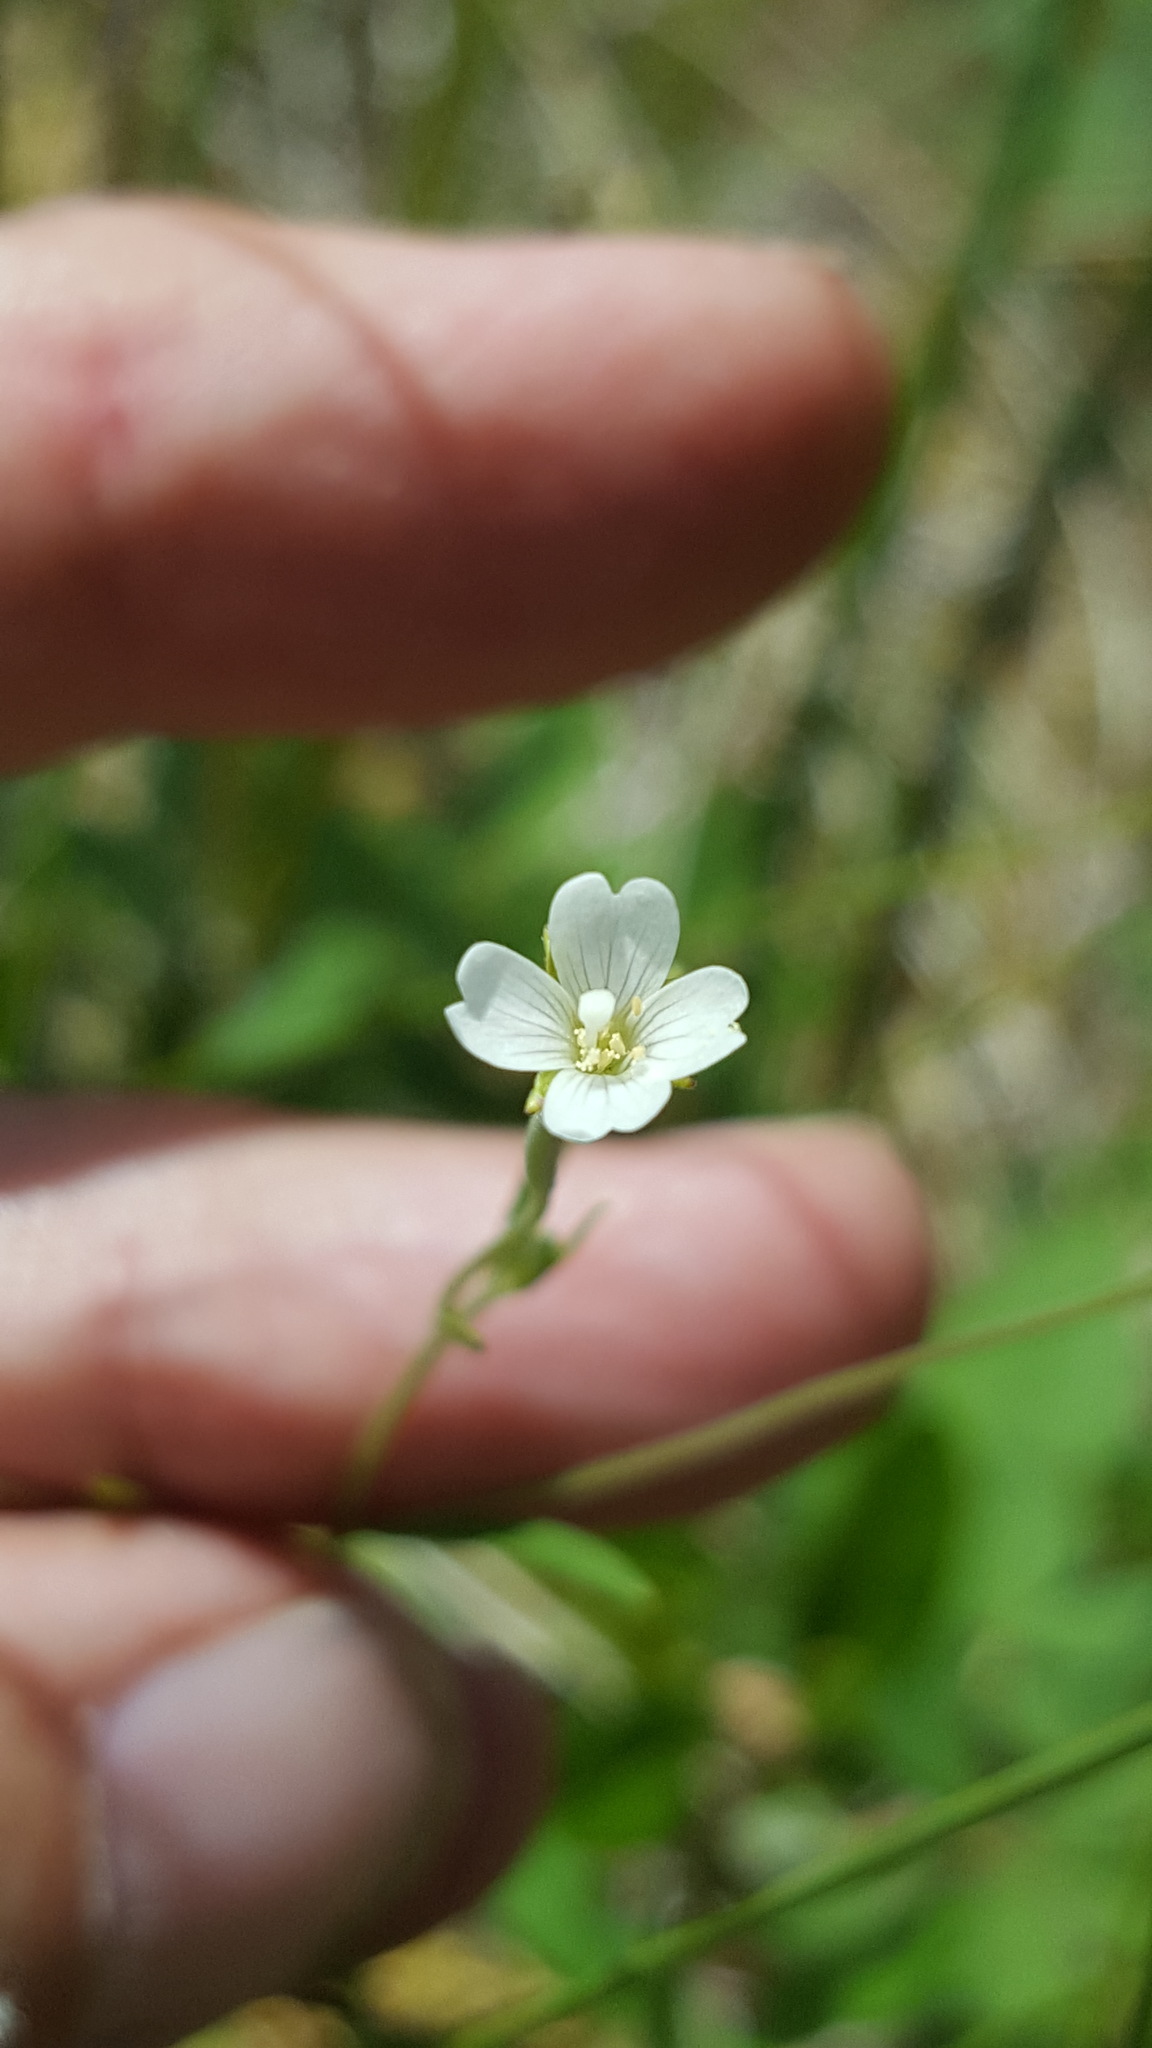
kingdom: Plantae
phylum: Tracheophyta
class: Magnoliopsida
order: Myrtales
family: Onagraceae
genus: Epilobium
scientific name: Epilobium leptophyllum
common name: Bog willowherb
